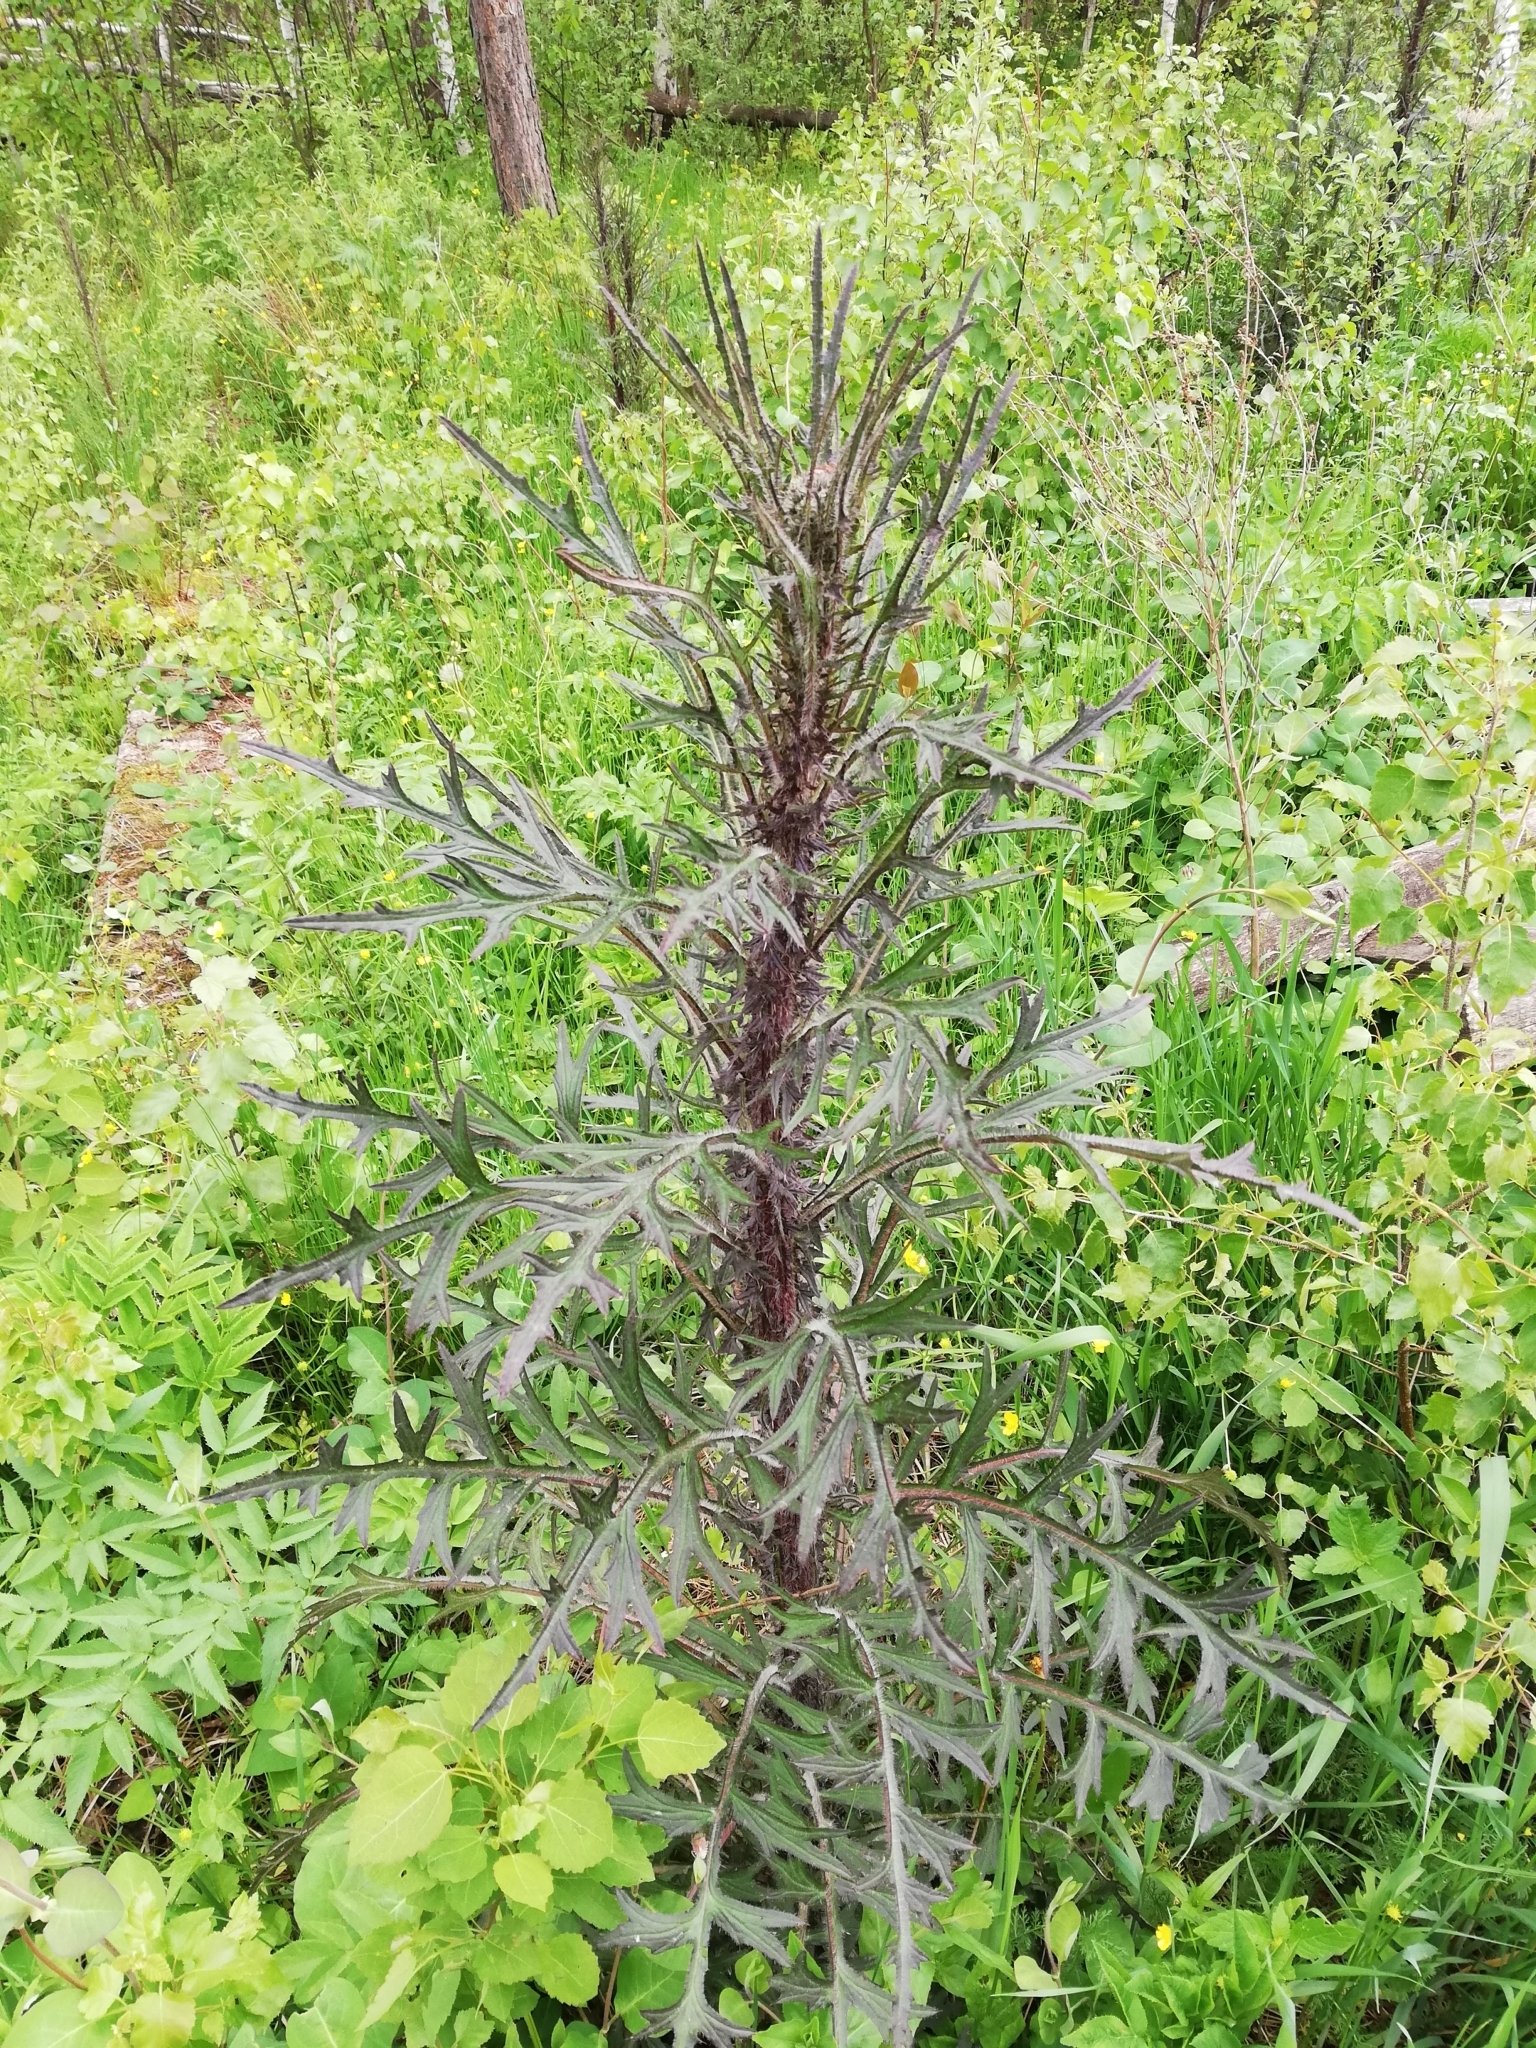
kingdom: Plantae
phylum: Tracheophyta
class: Magnoliopsida
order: Asterales
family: Asteraceae
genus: Cirsium
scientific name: Cirsium palustre
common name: Marsh thistle
